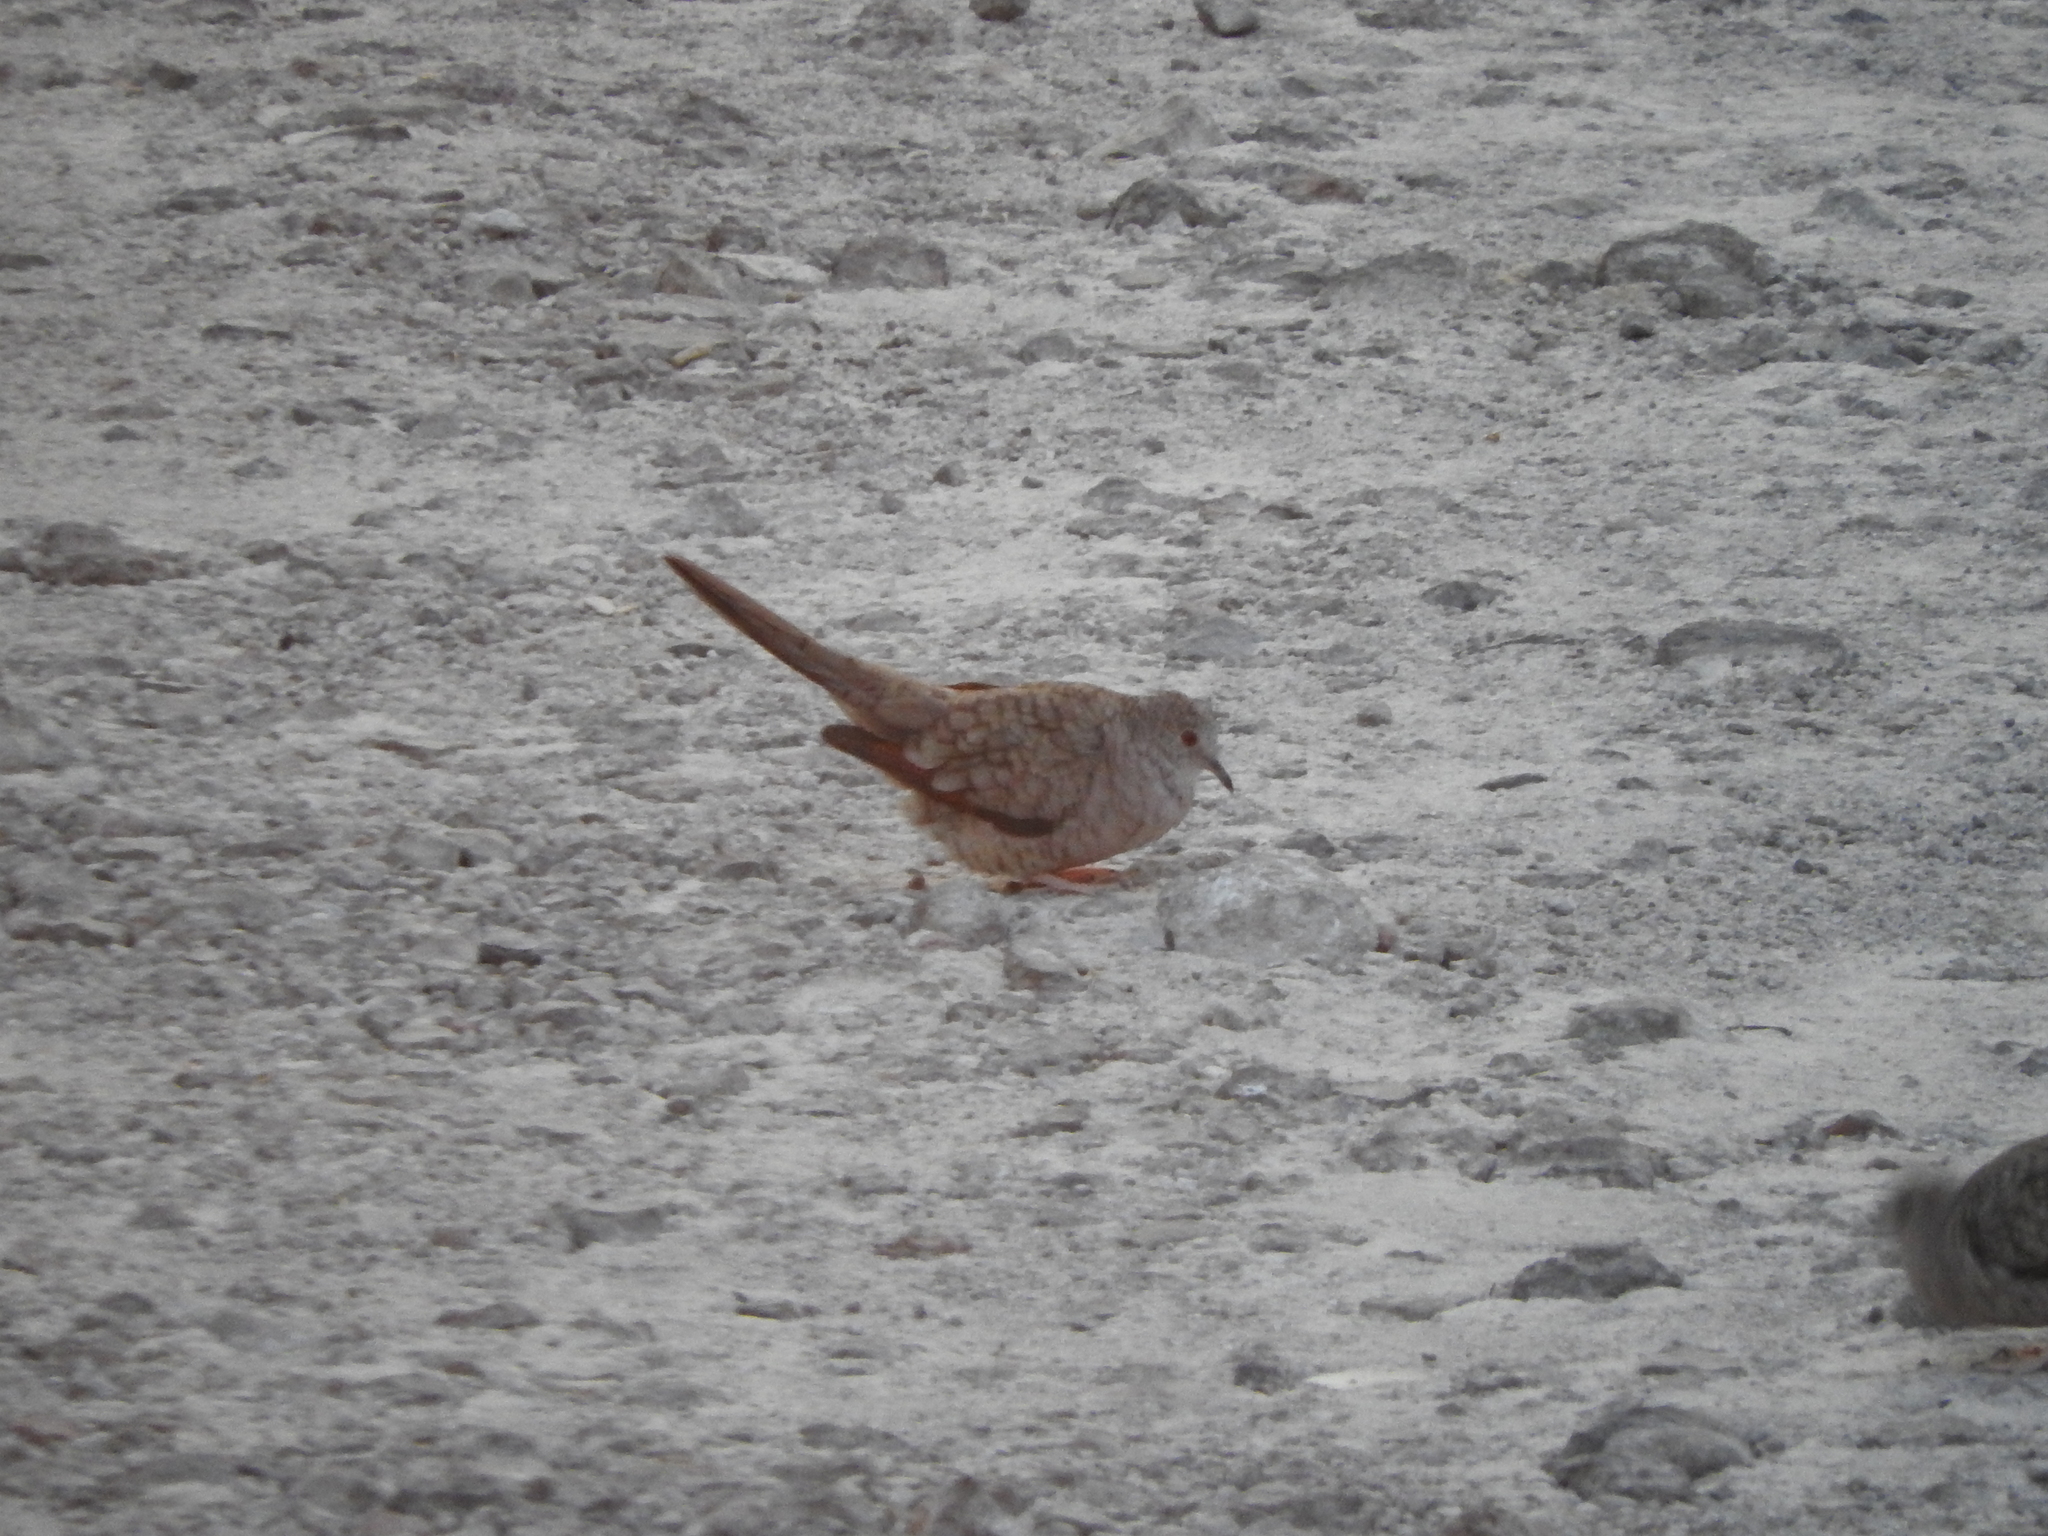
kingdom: Animalia
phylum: Chordata
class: Aves
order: Columbiformes
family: Columbidae
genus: Columbina
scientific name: Columbina inca
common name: Inca dove
